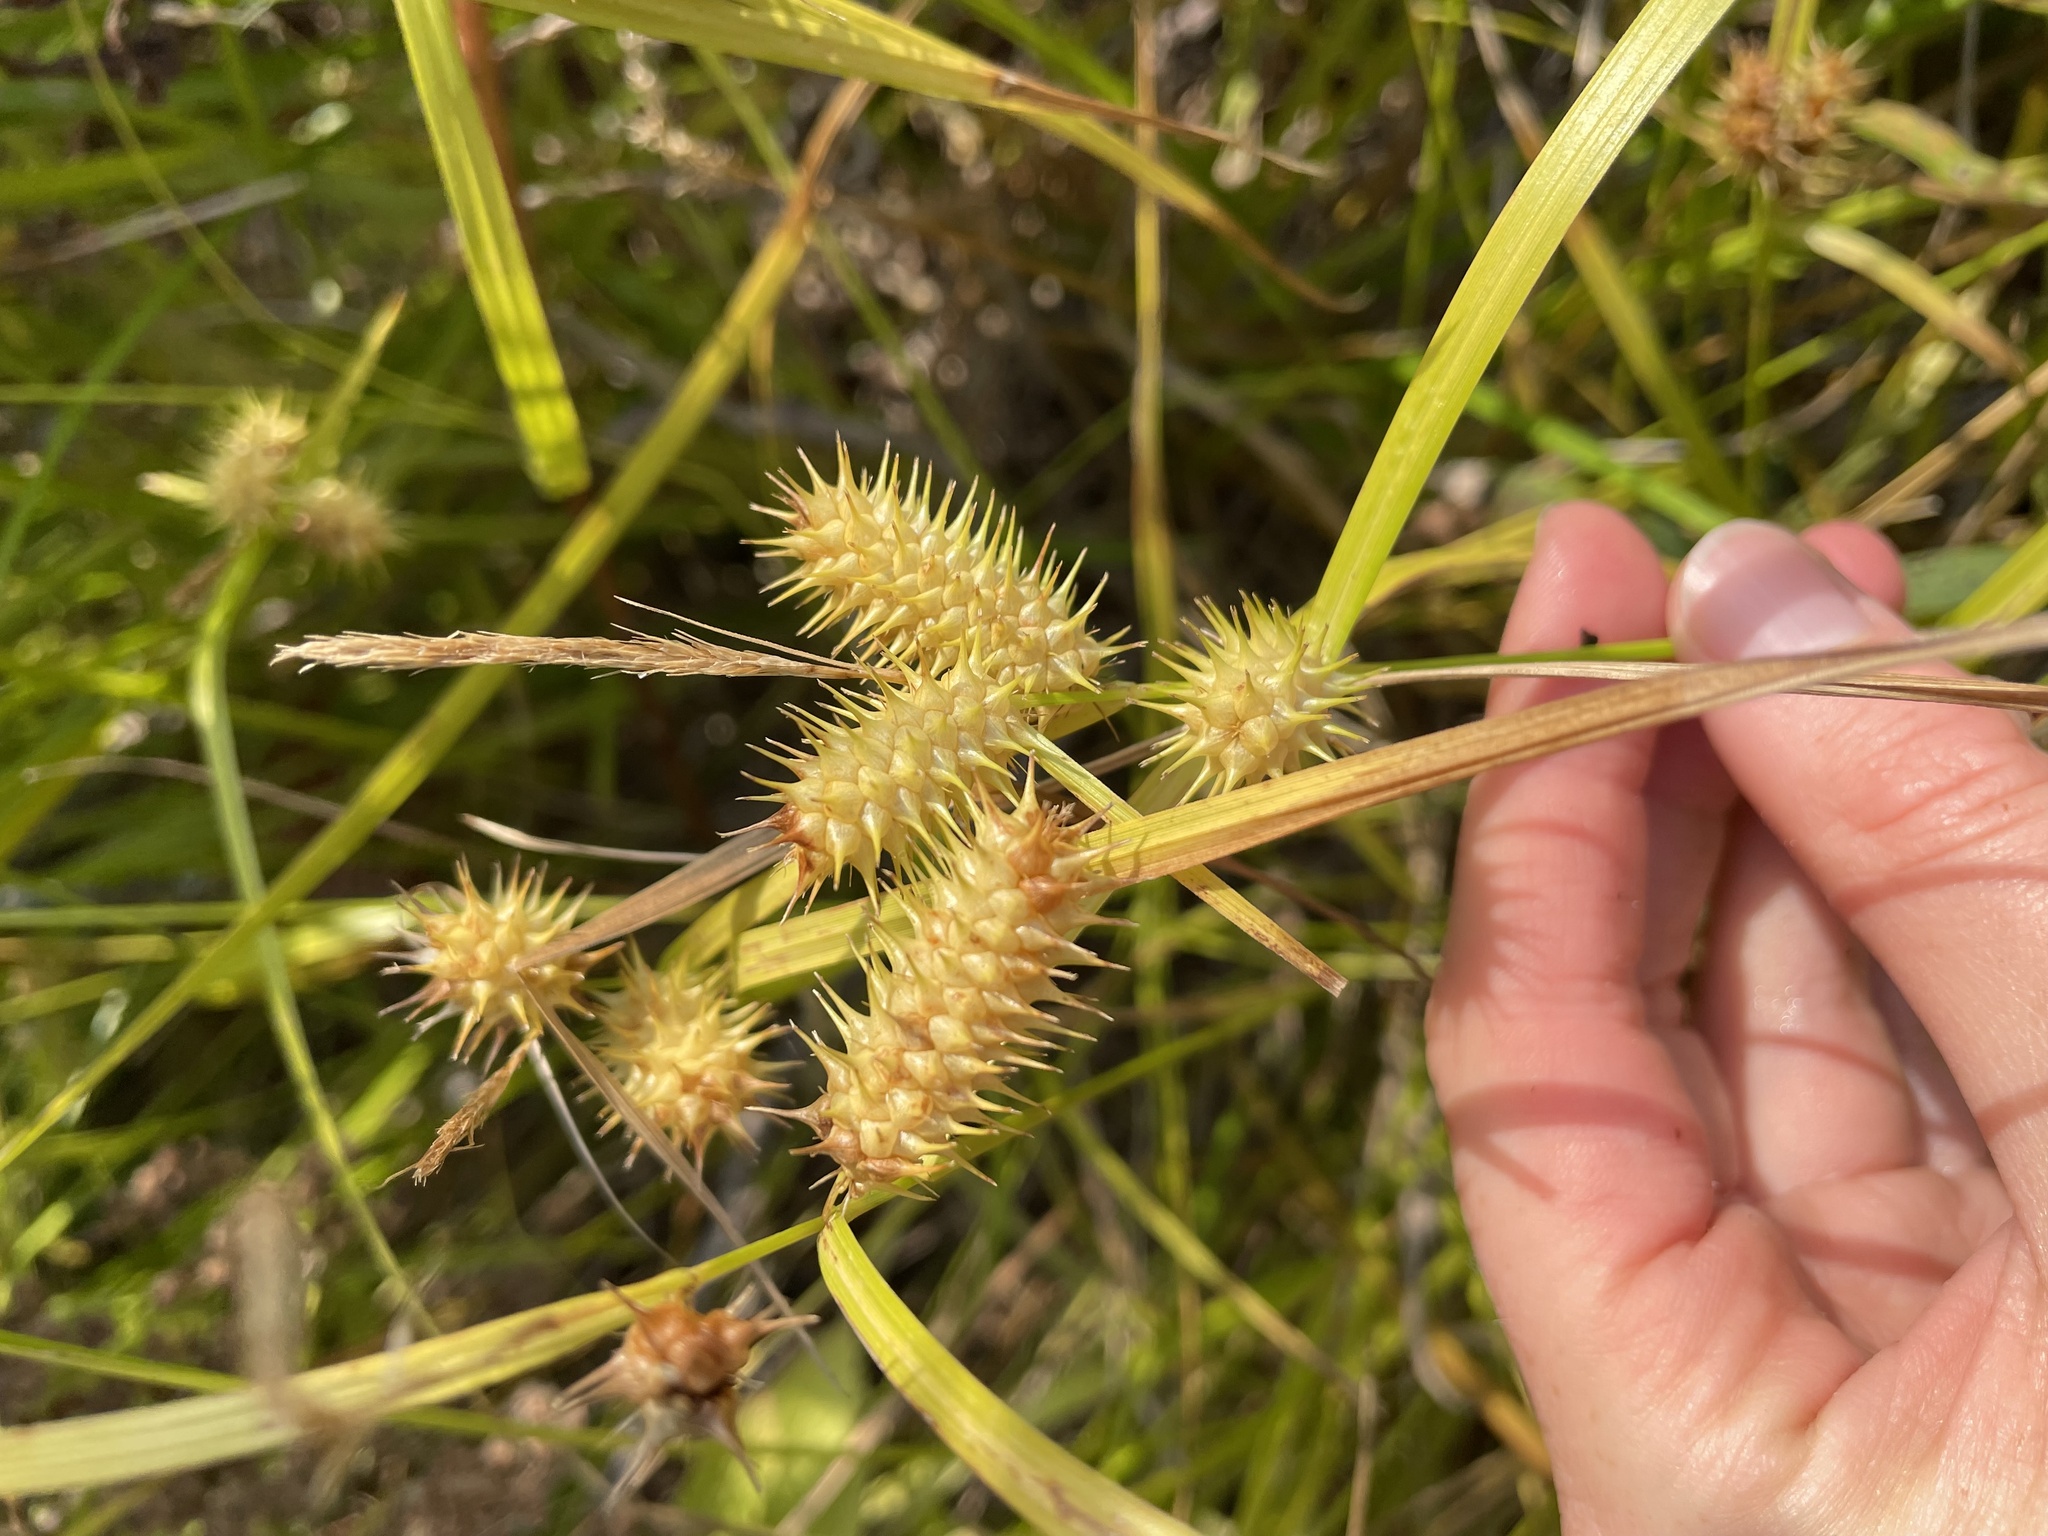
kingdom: Plantae
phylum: Tracheophyta
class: Liliopsida
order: Poales
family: Cyperaceae
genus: Carex
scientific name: Carex lurida
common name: Sallow sedge
